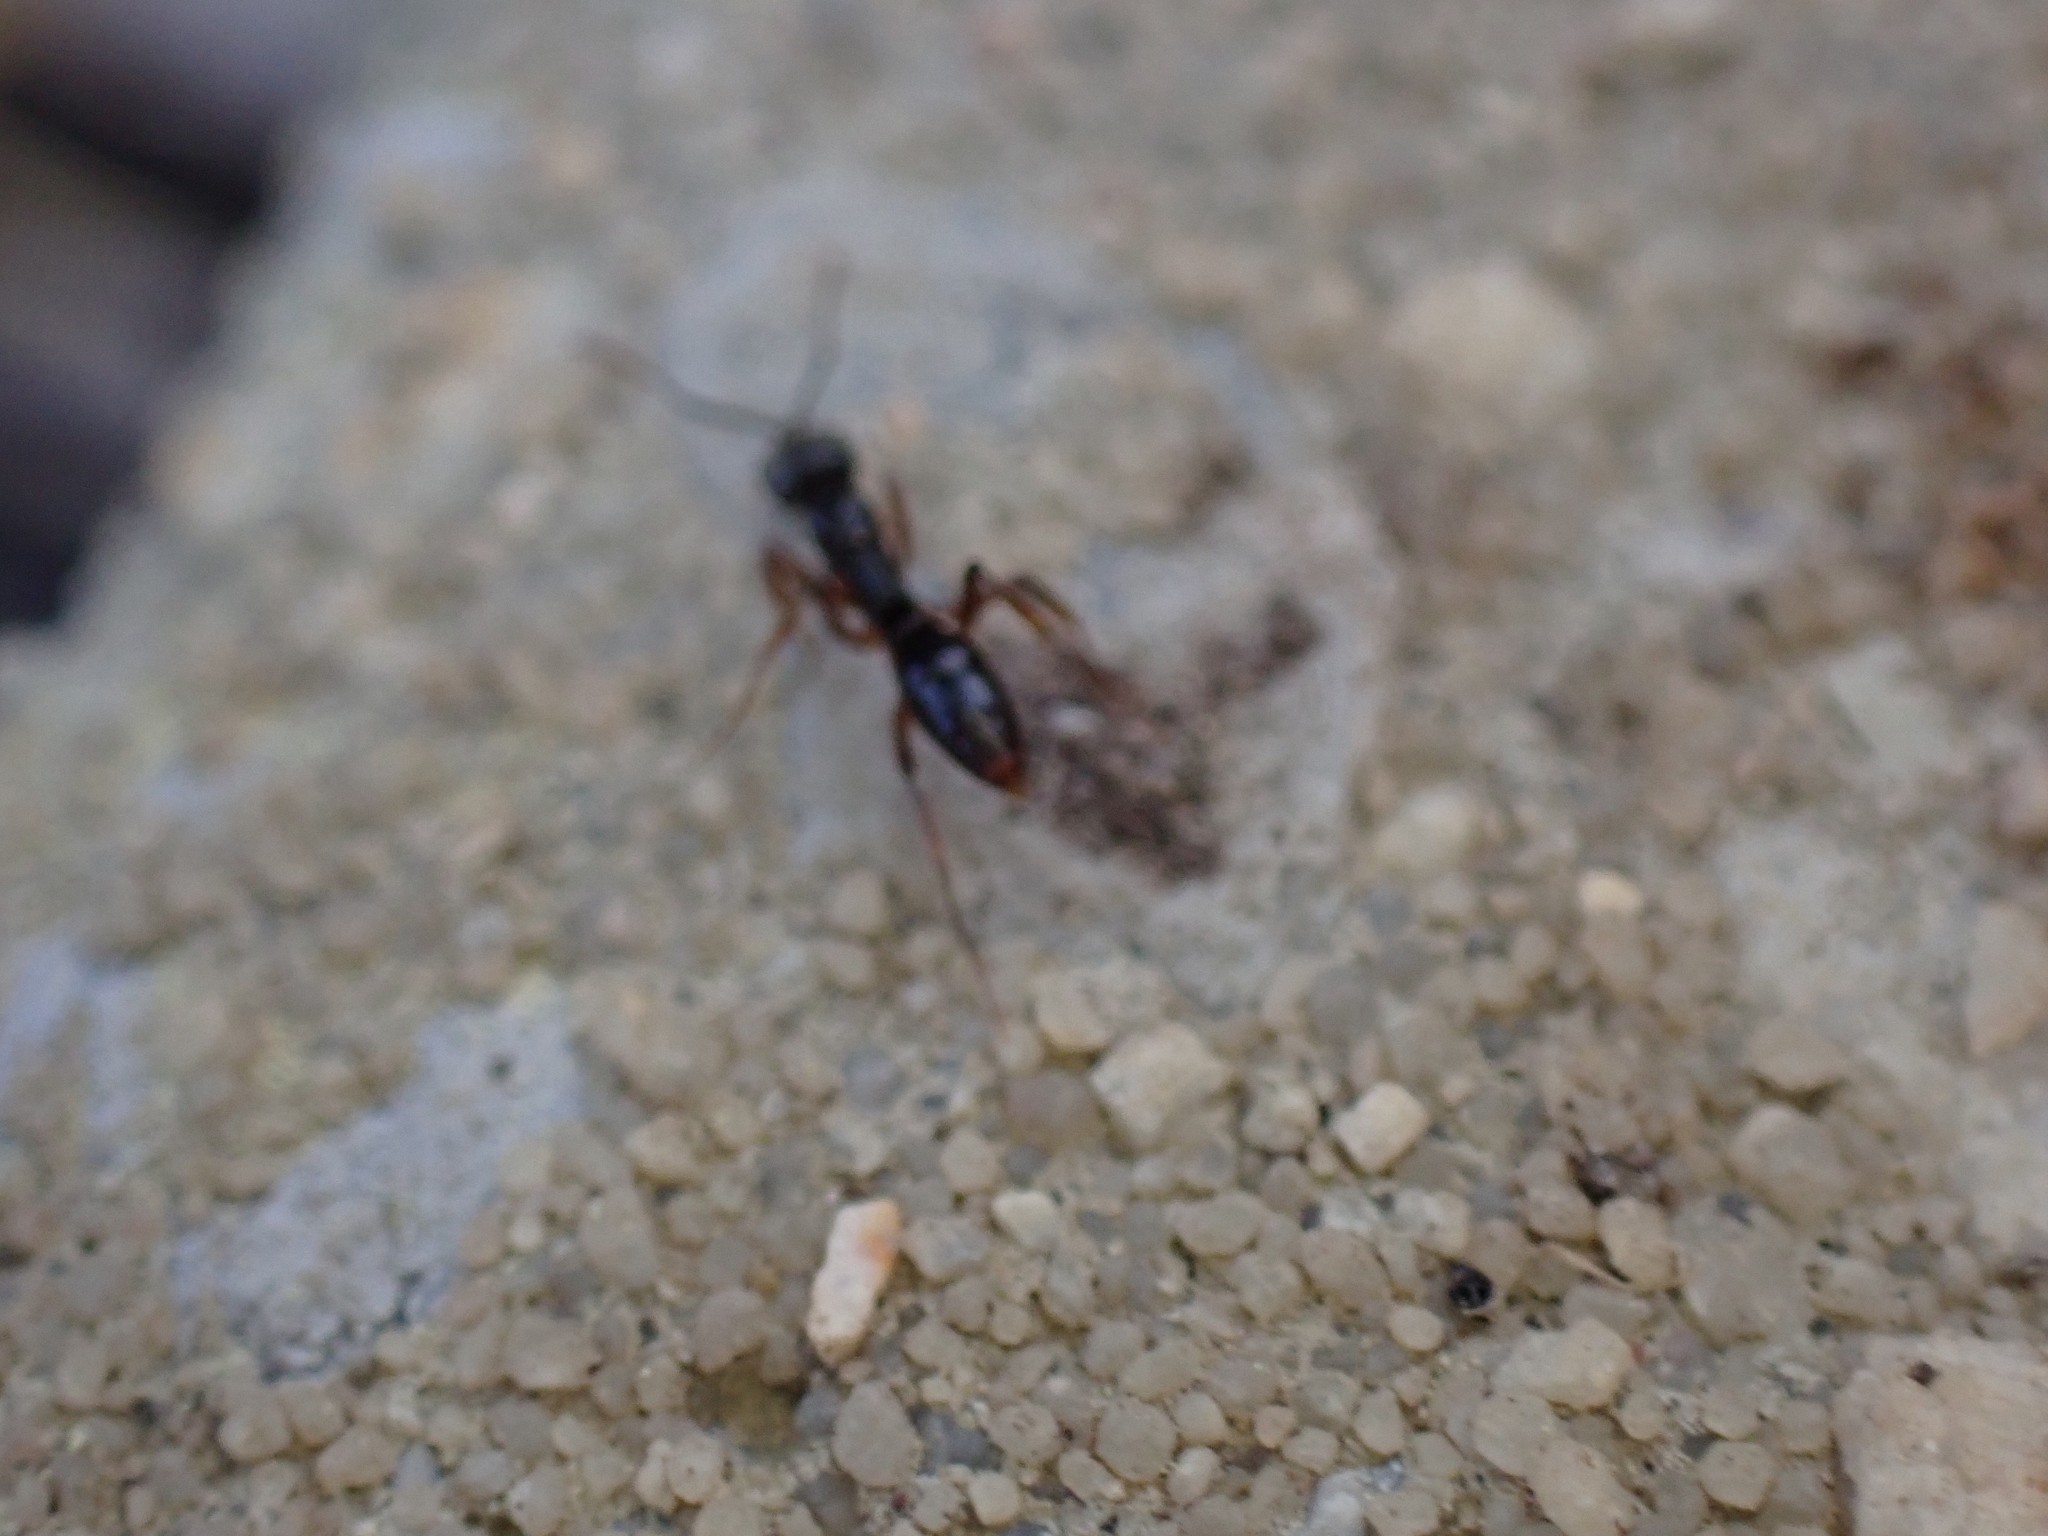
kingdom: Animalia
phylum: Arthropoda
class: Insecta
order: Hymenoptera
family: Formicidae
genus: Pachycondyla
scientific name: Pachycondyla chinensis
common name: Asian needle ant
